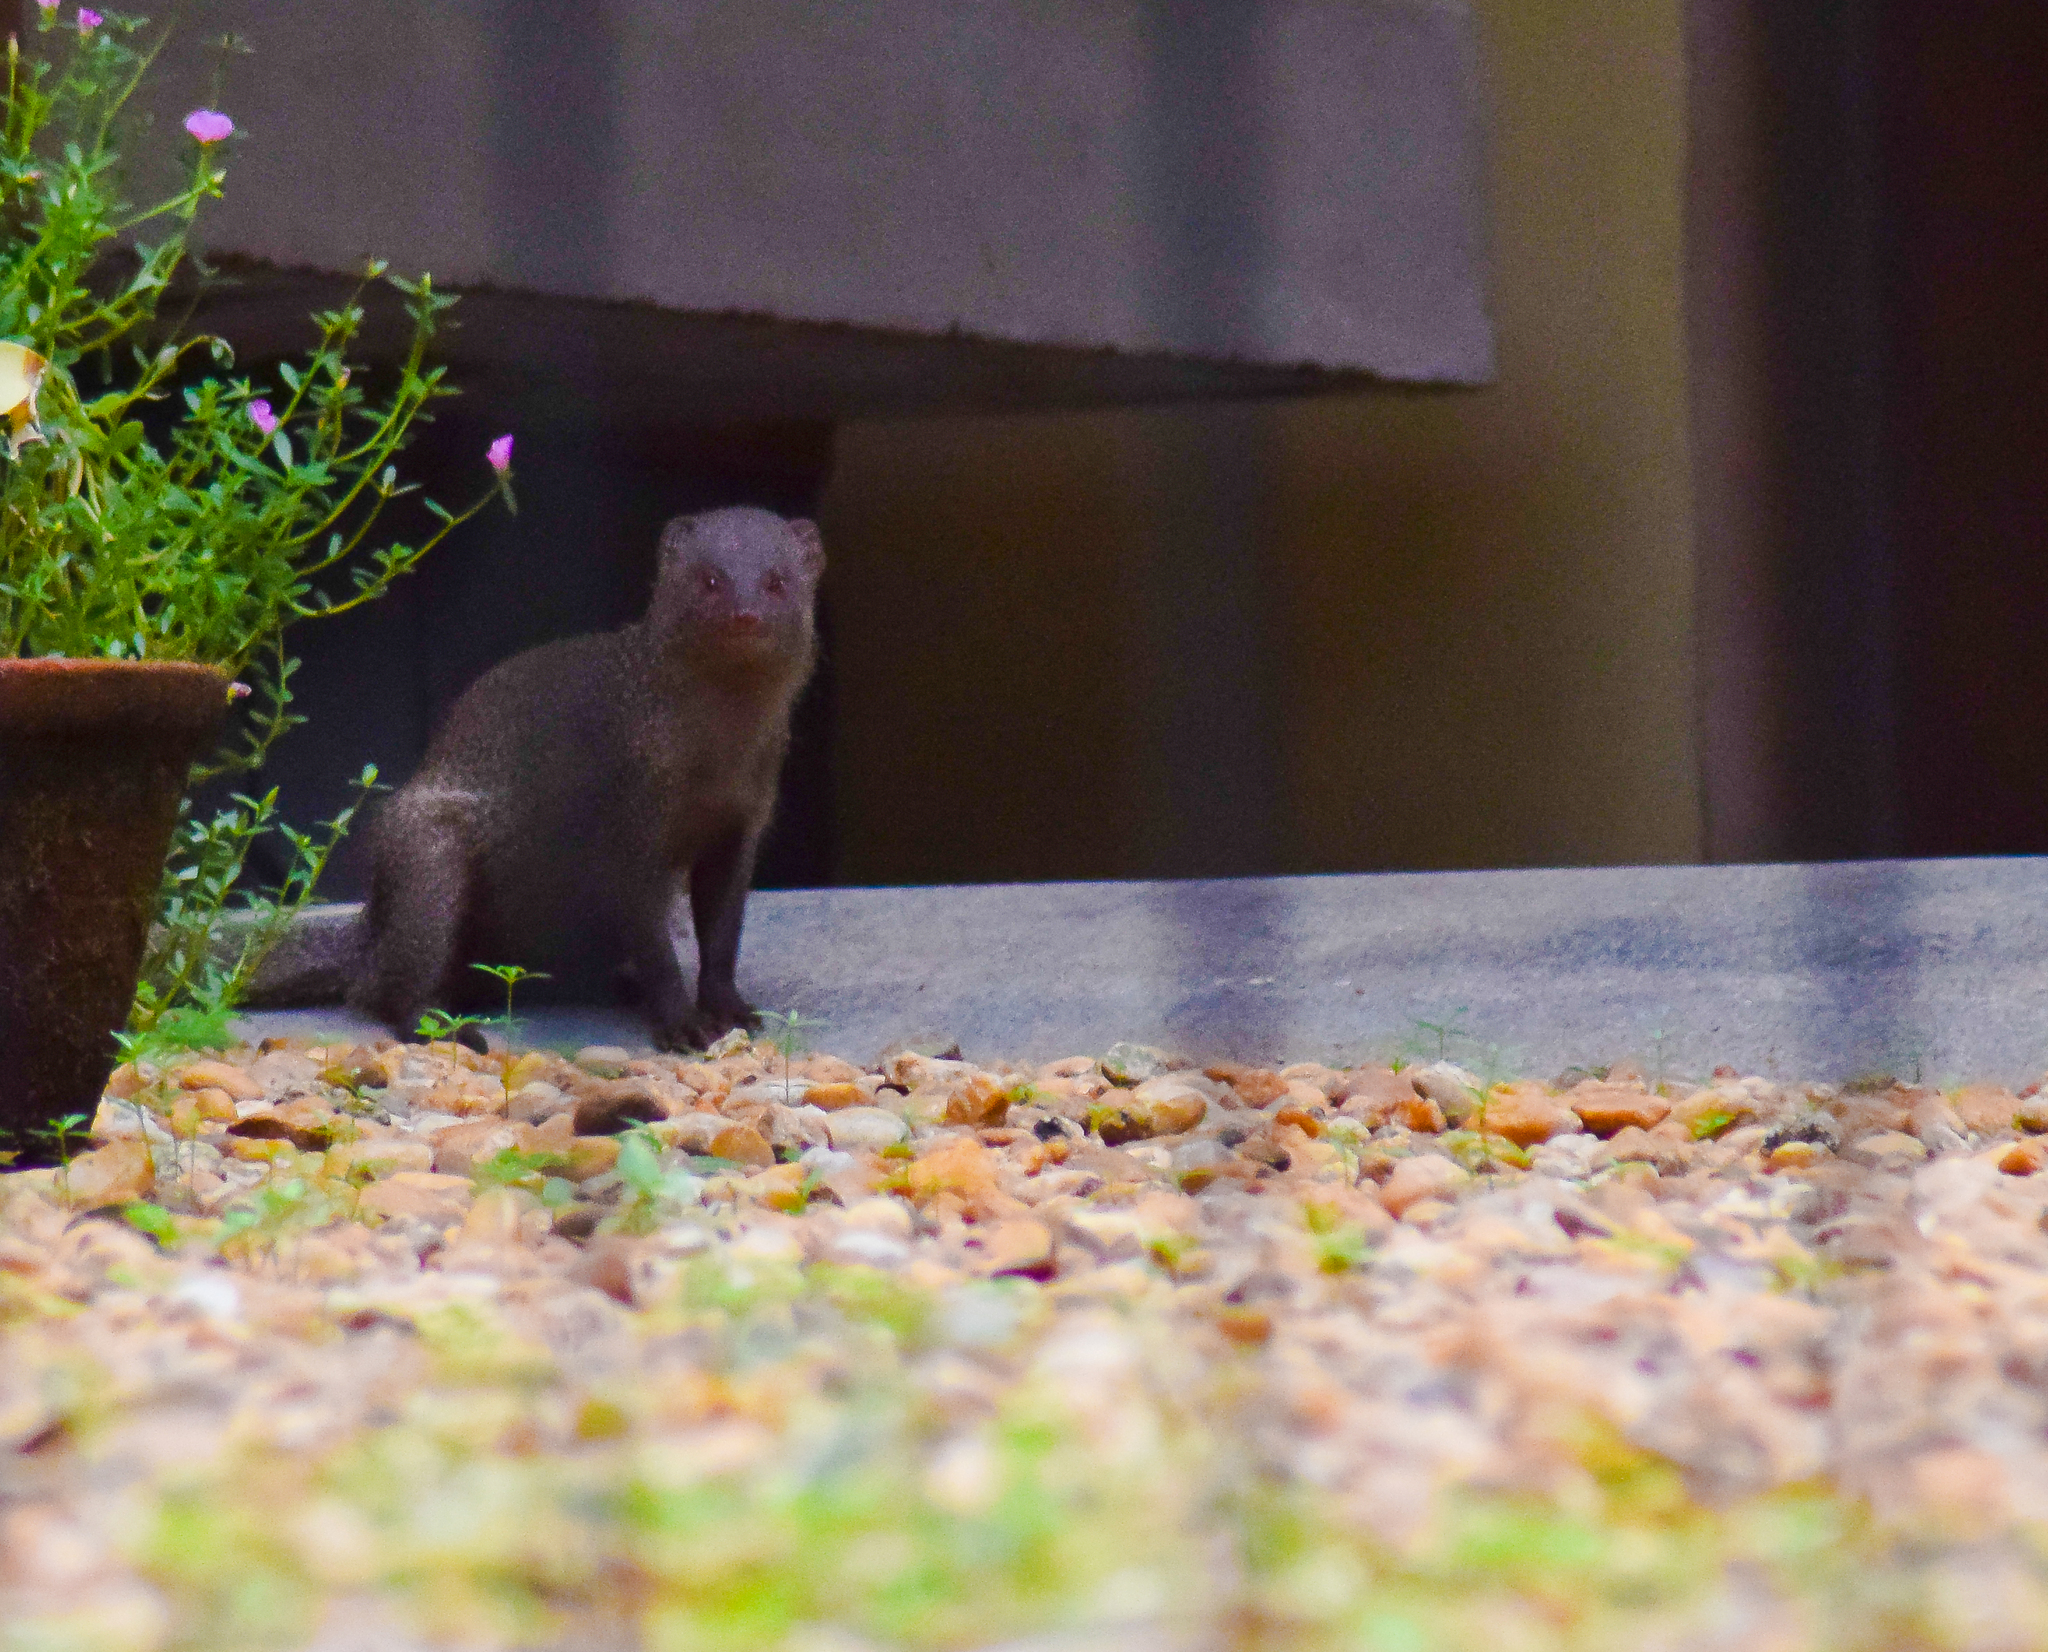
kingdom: Animalia
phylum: Chordata
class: Mammalia
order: Carnivora
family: Herpestidae
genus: Herpestes
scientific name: Herpestes edwardsi
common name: Indian gray mongoose
